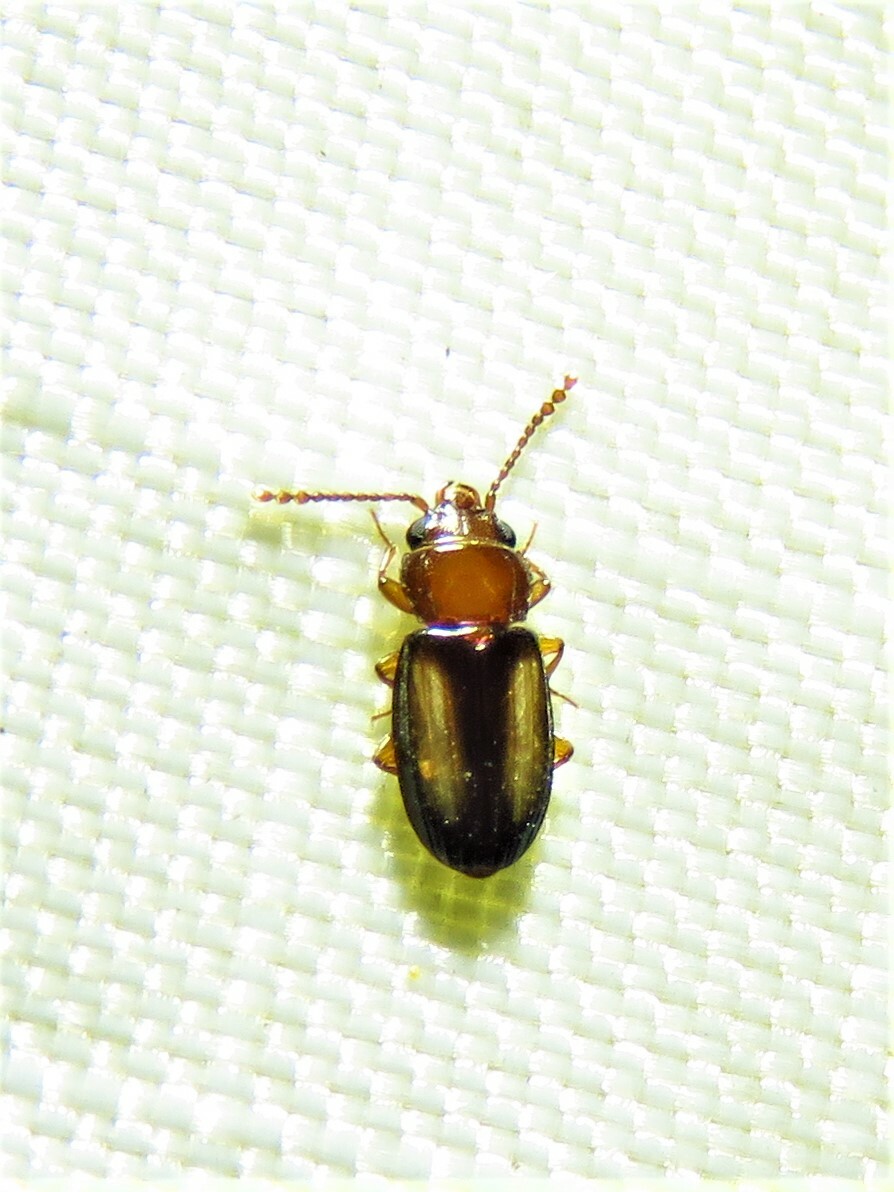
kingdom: Animalia
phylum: Arthropoda
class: Insecta
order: Coleoptera
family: Laemophloeidae
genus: Laemophloeus
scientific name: Laemophloeus terminalis
